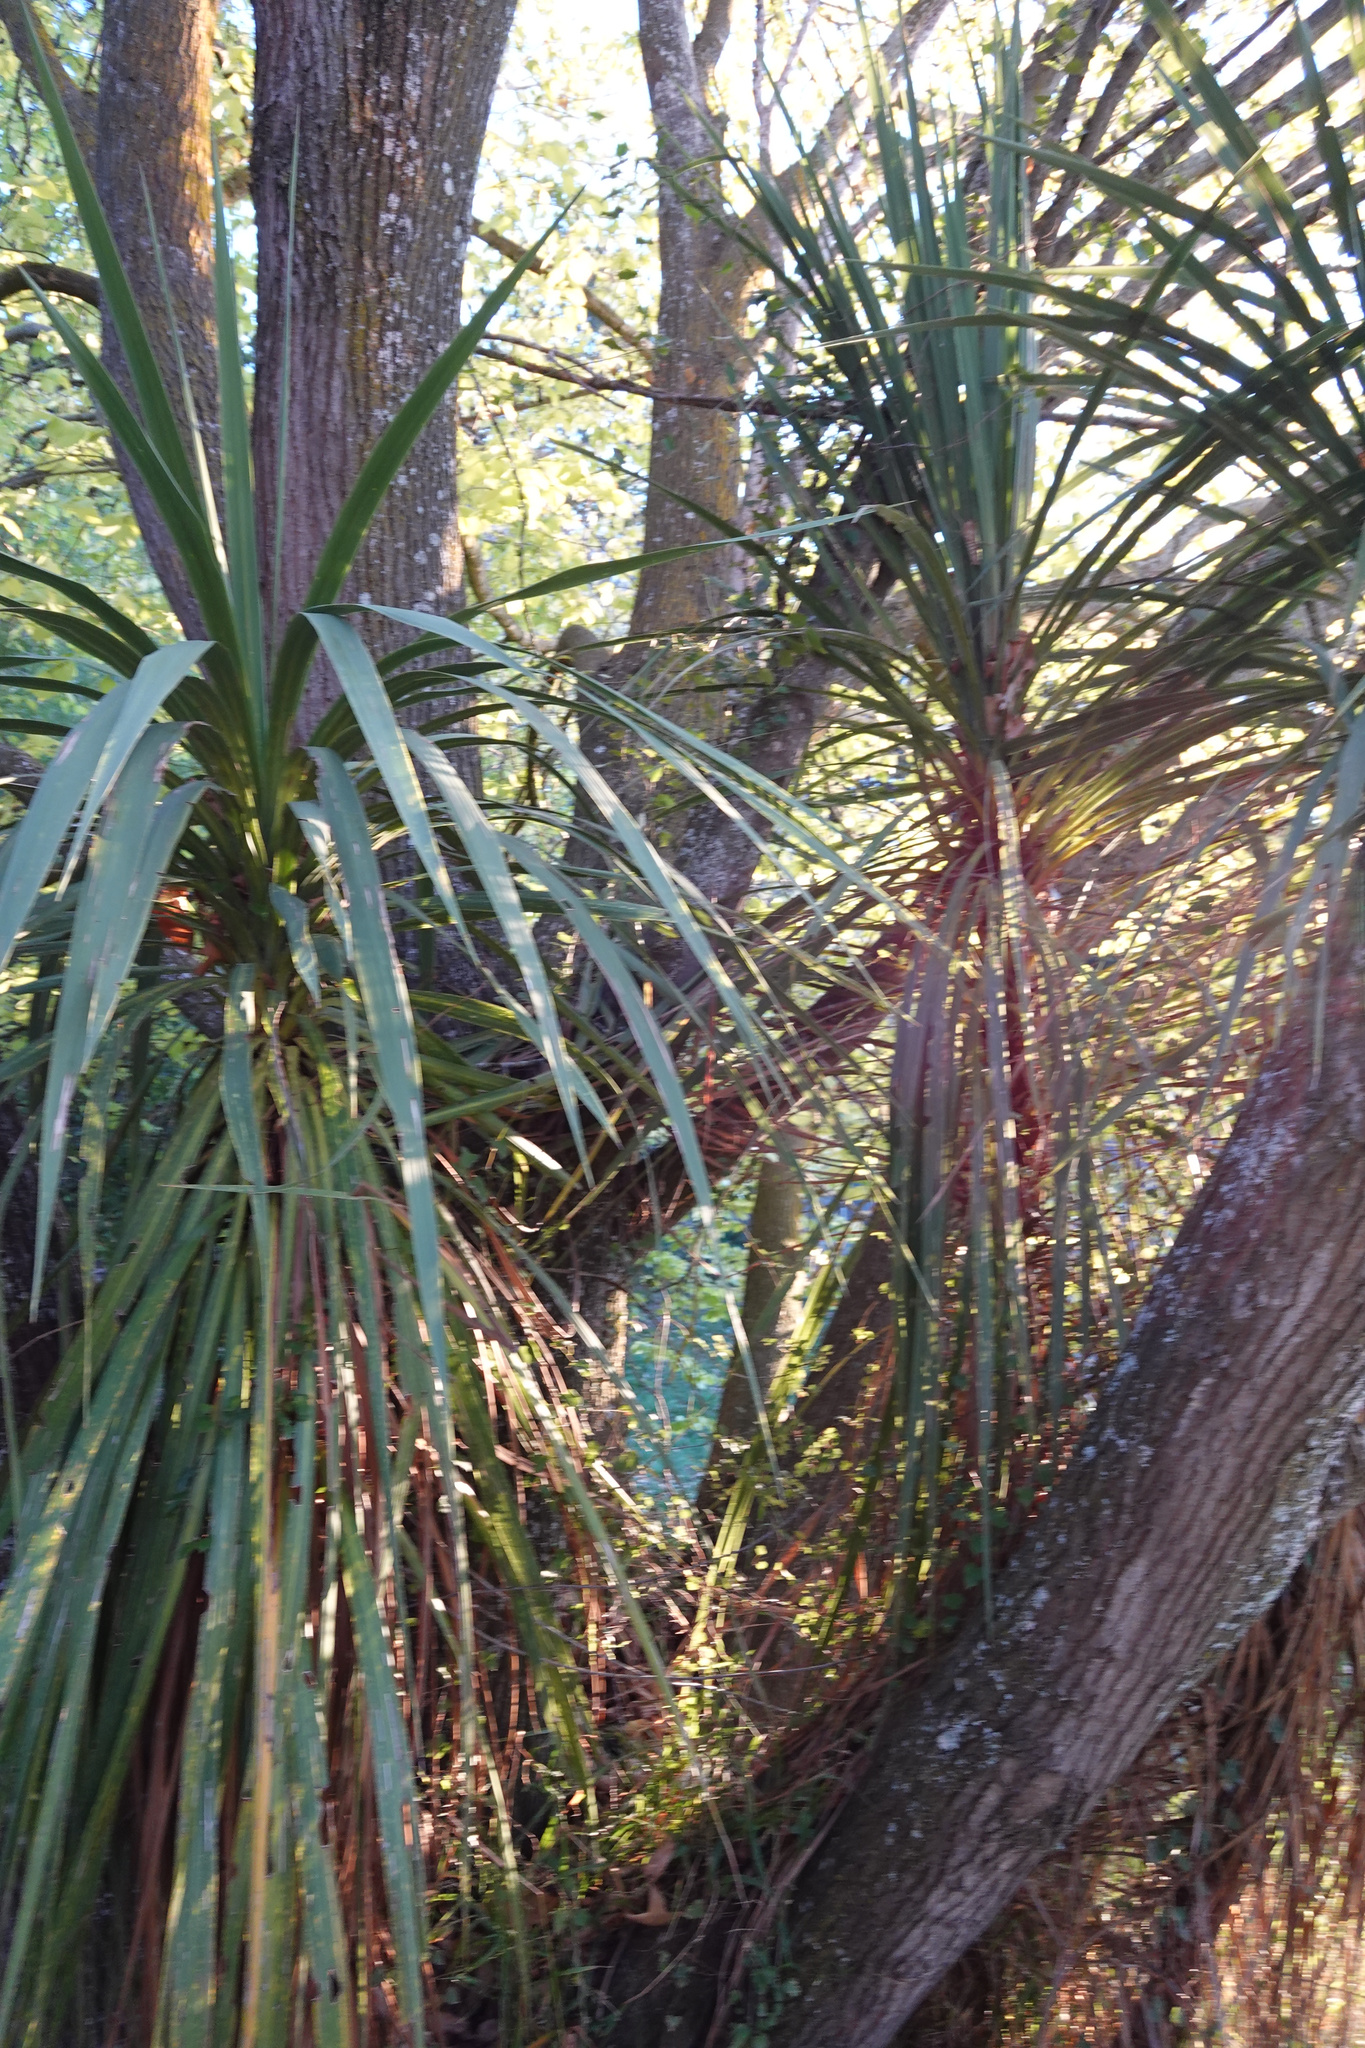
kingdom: Plantae
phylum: Tracheophyta
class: Liliopsida
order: Asparagales
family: Asparagaceae
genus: Cordyline
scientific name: Cordyline australis
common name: Cabbage-palm
